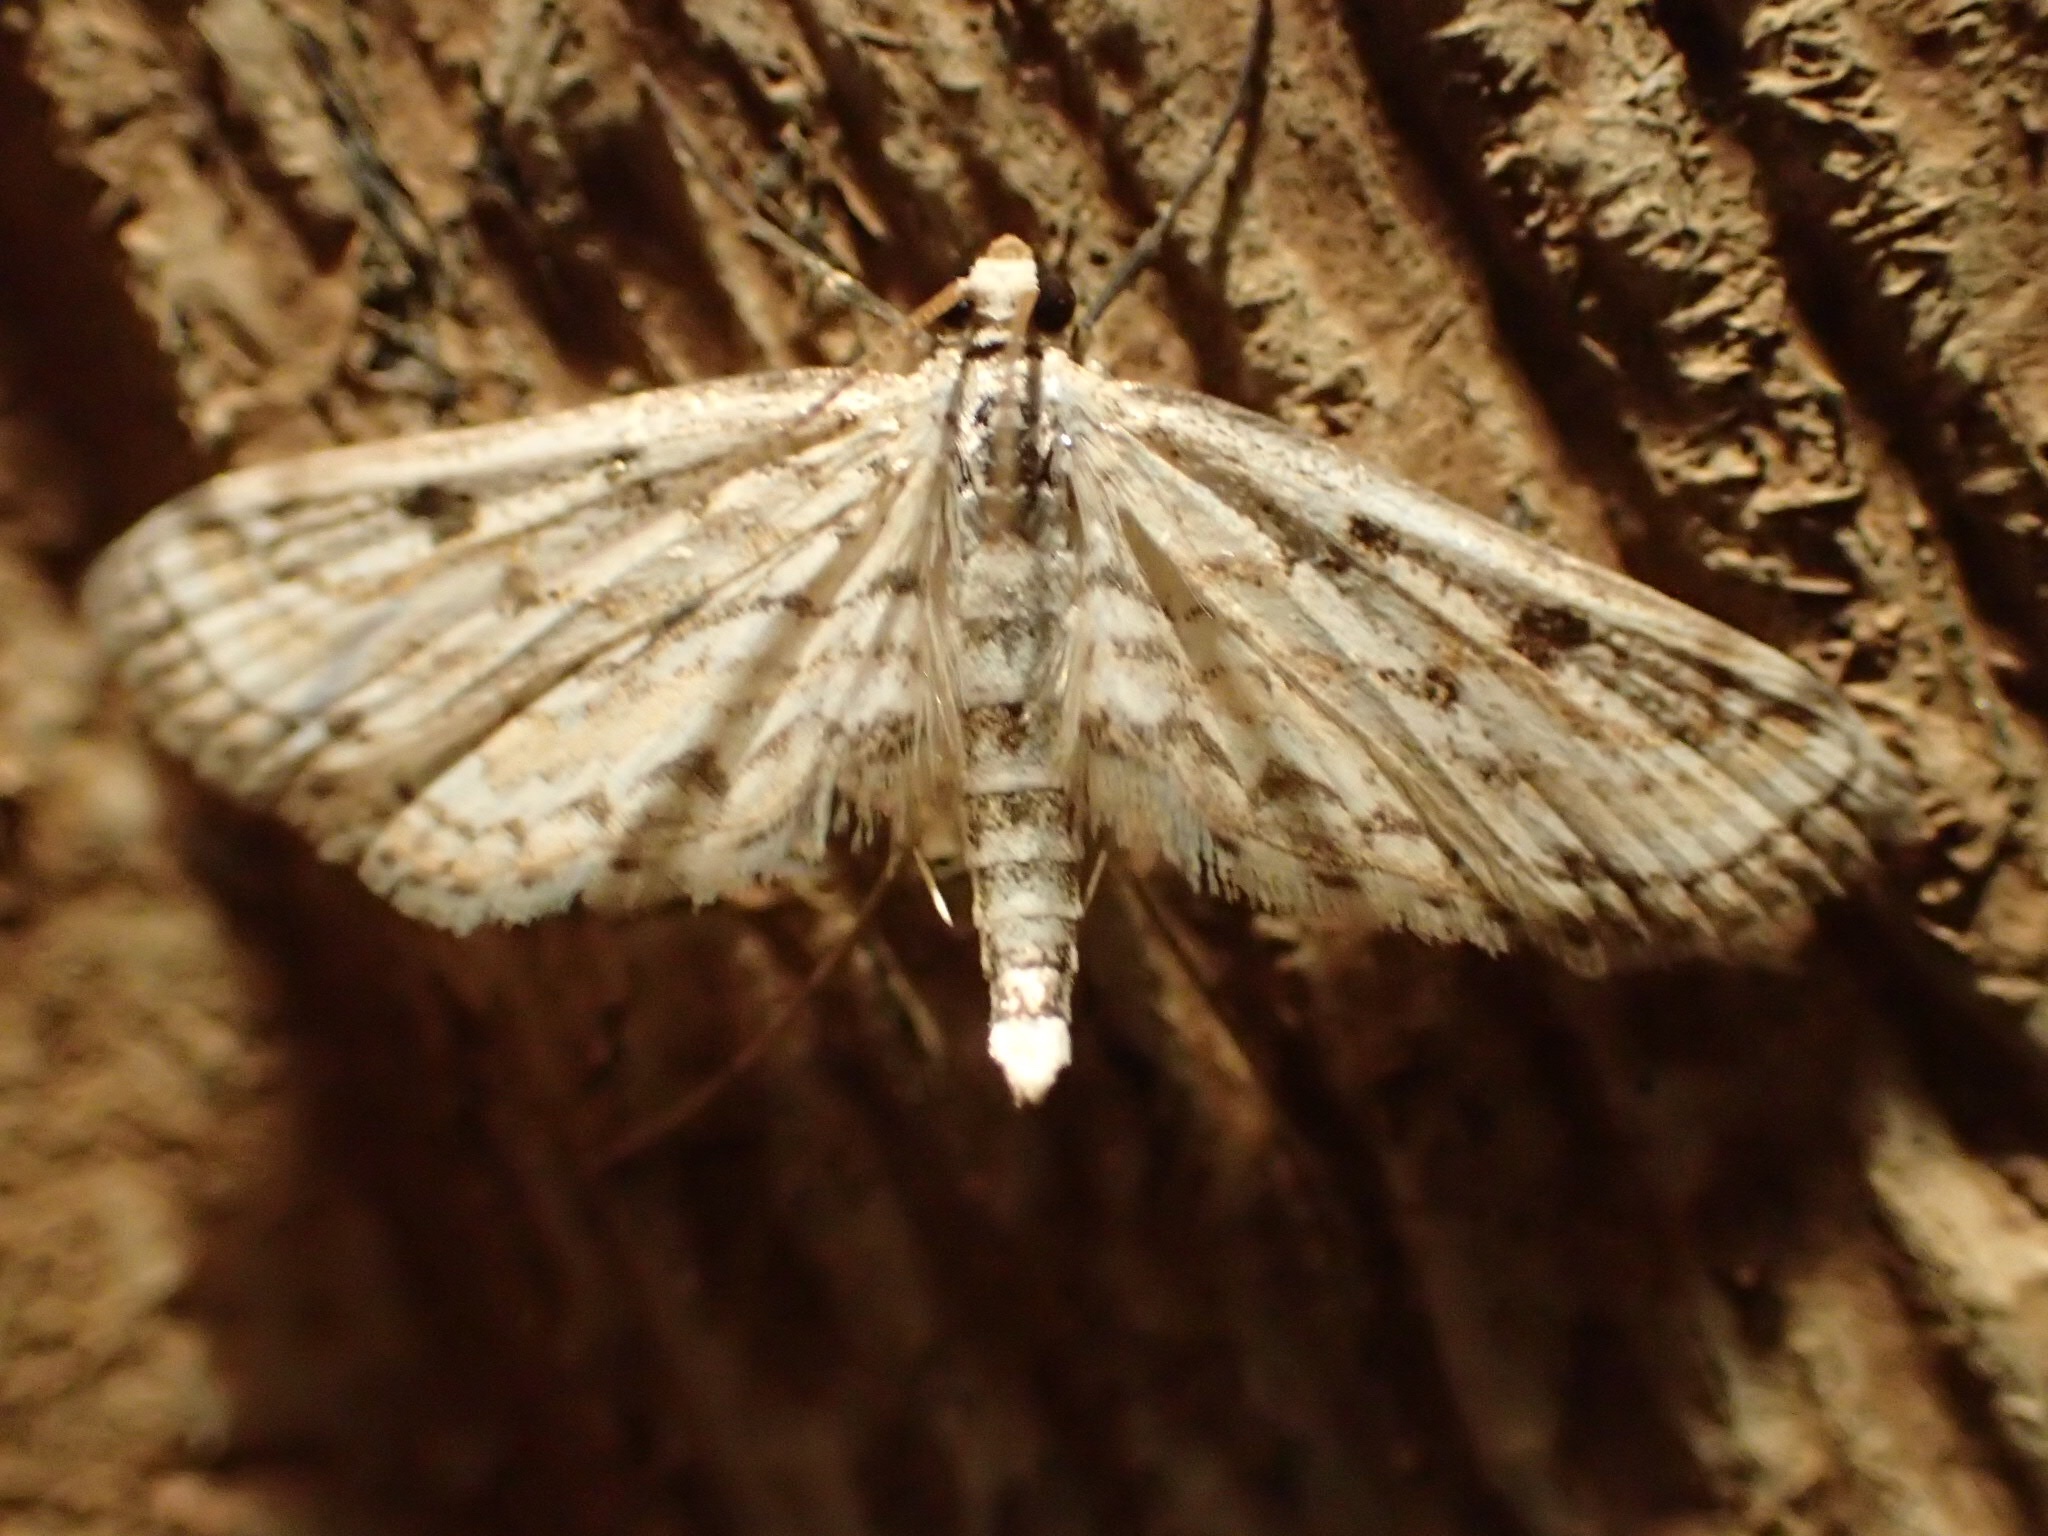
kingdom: Animalia
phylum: Arthropoda
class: Insecta
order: Lepidoptera
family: Crambidae
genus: Parapoynx
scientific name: Parapoynx allionealis
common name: Bladderwort casemaker
